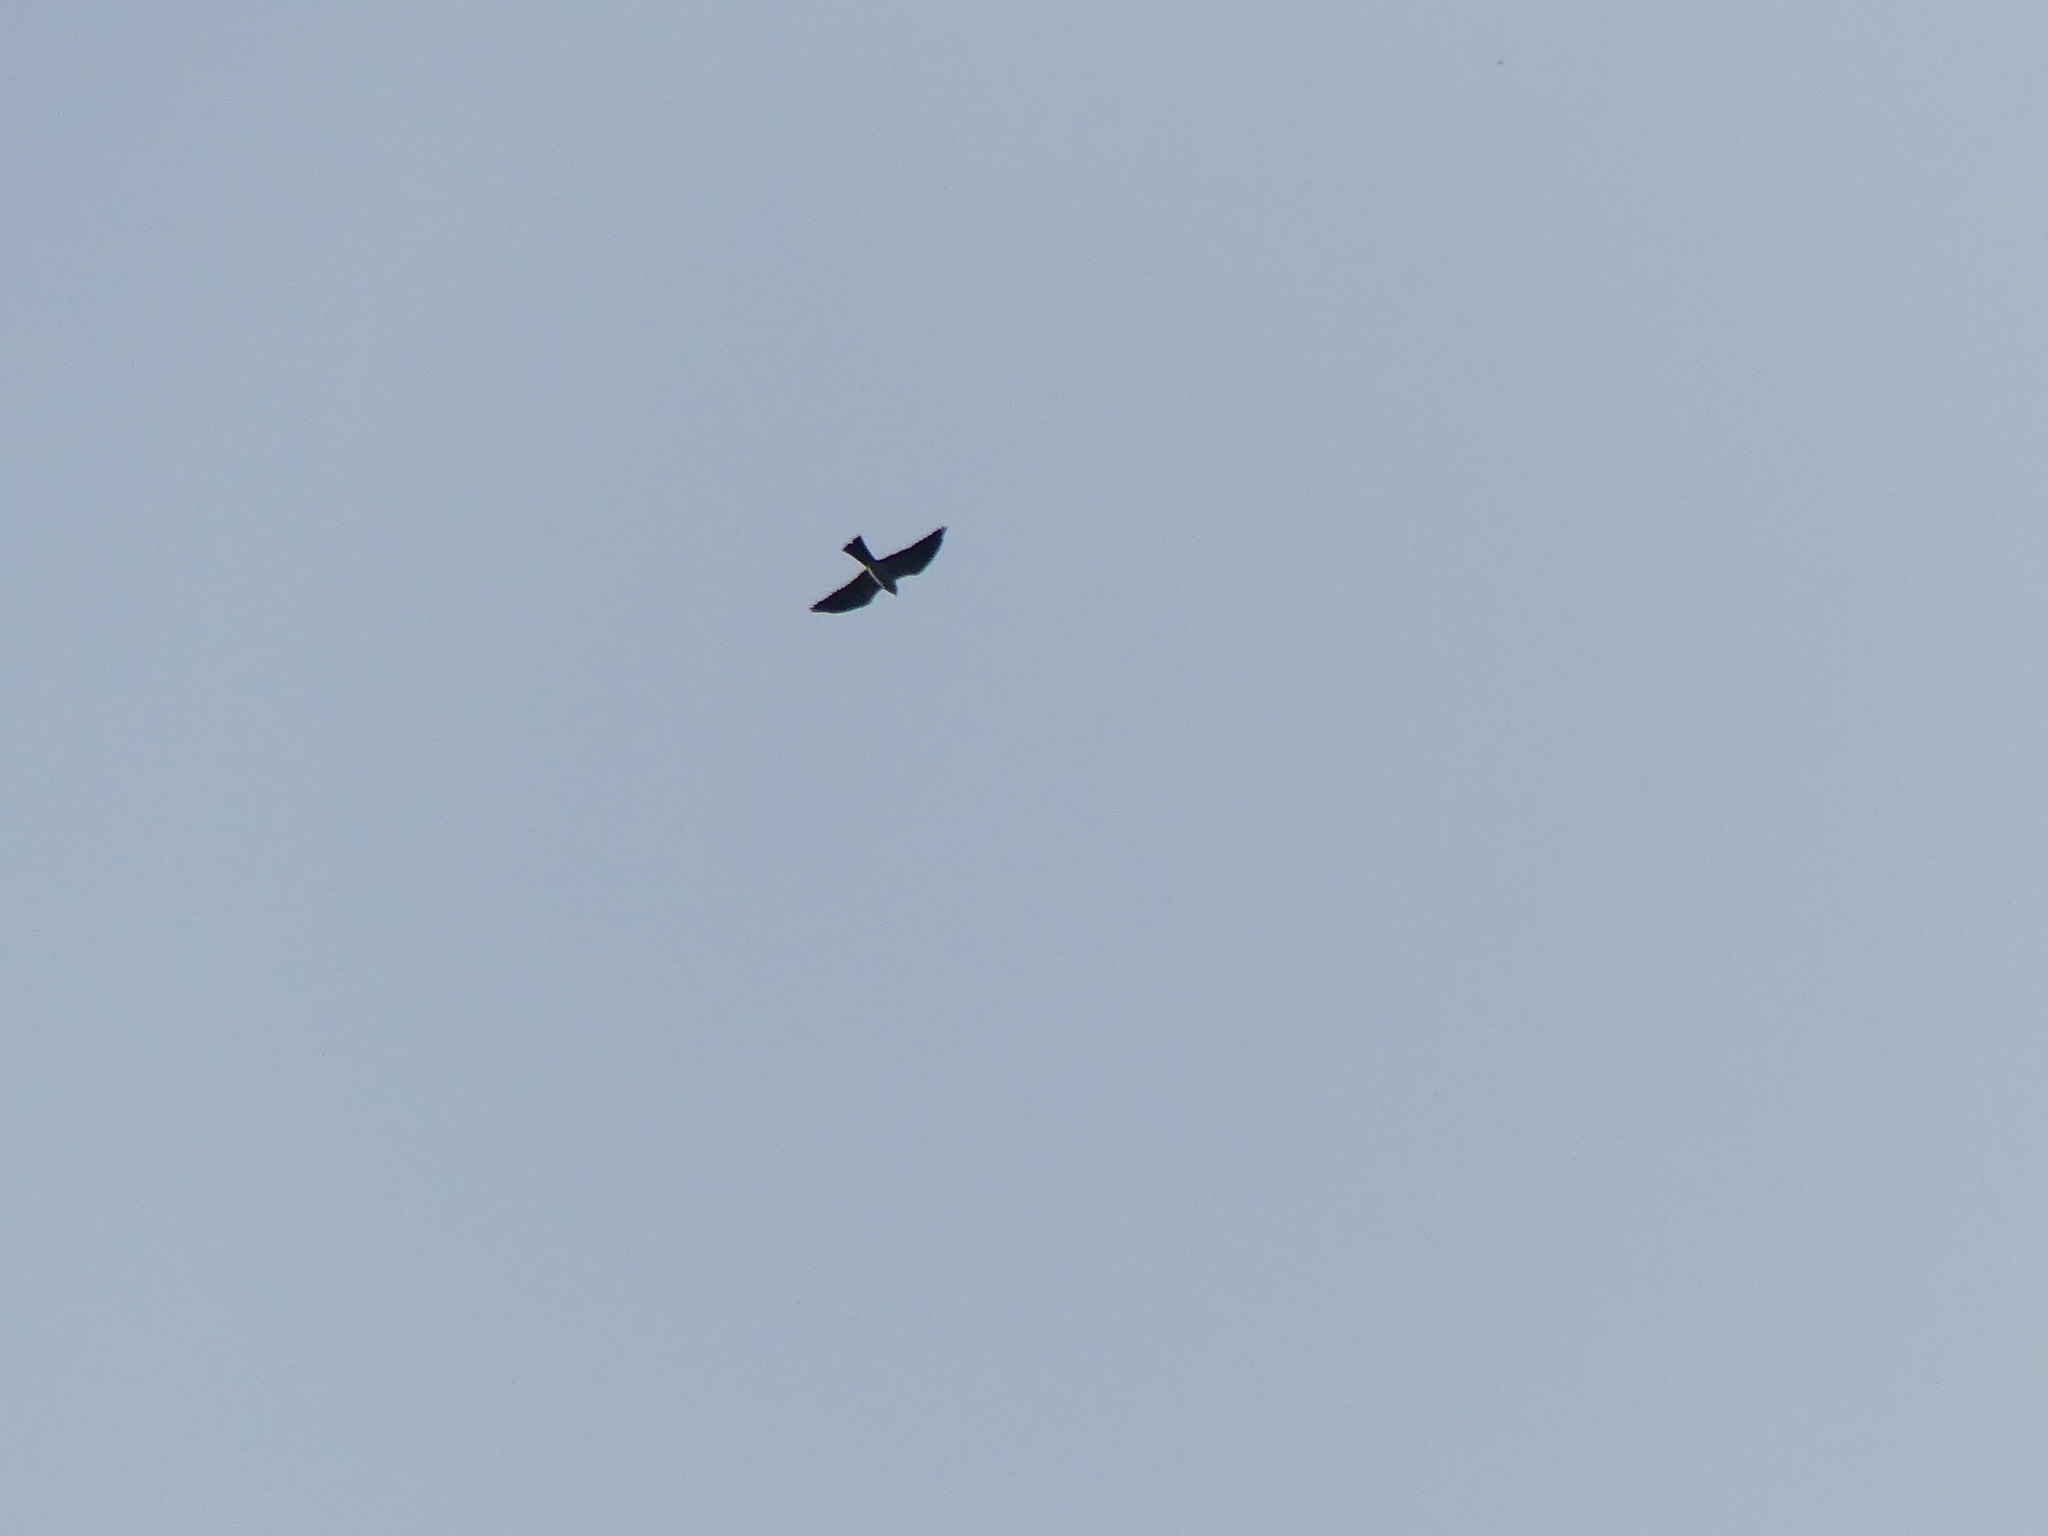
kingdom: Animalia
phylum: Chordata
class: Aves
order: Accipitriformes
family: Accipitridae
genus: Ictinia
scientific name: Ictinia mississippiensis
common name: Mississippi kite
